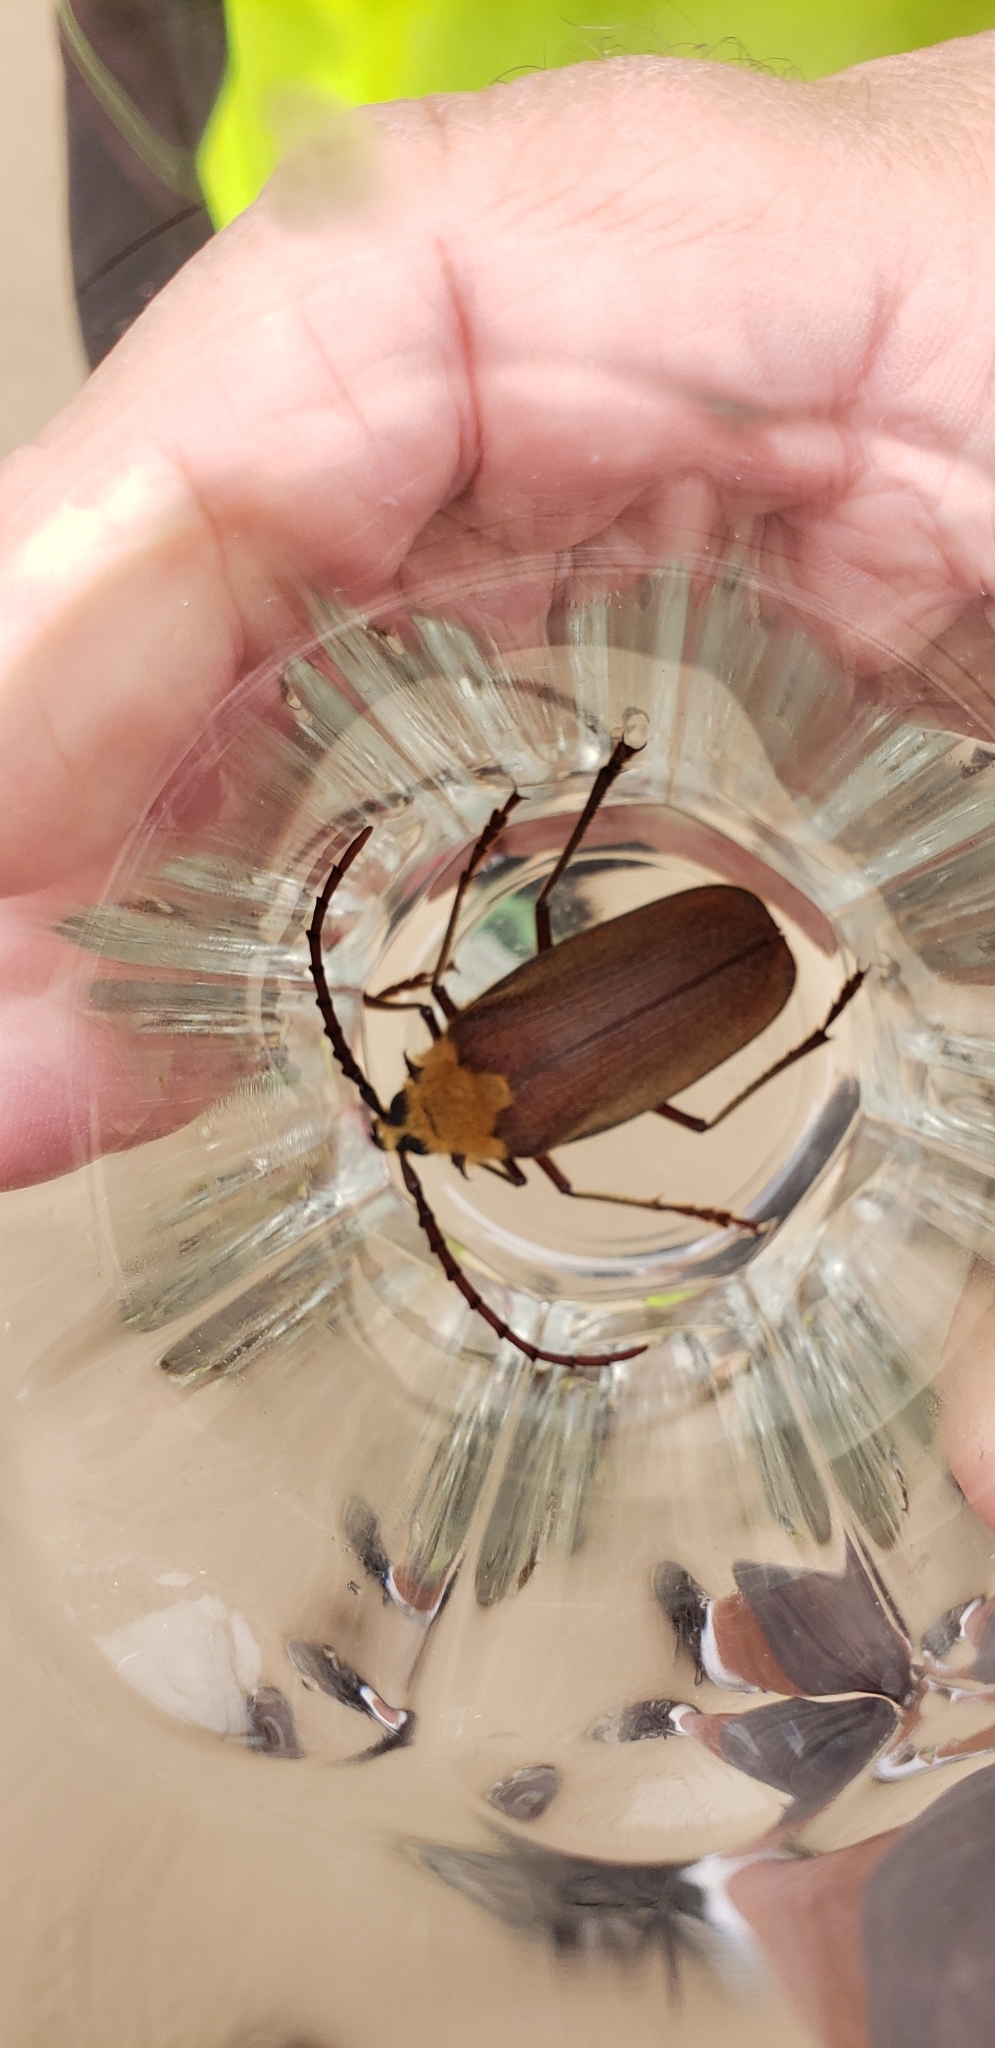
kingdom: Animalia
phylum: Arthropoda
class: Insecta
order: Coleoptera
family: Cerambycidae
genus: Acanthinodera
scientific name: Acanthinodera cumingii
